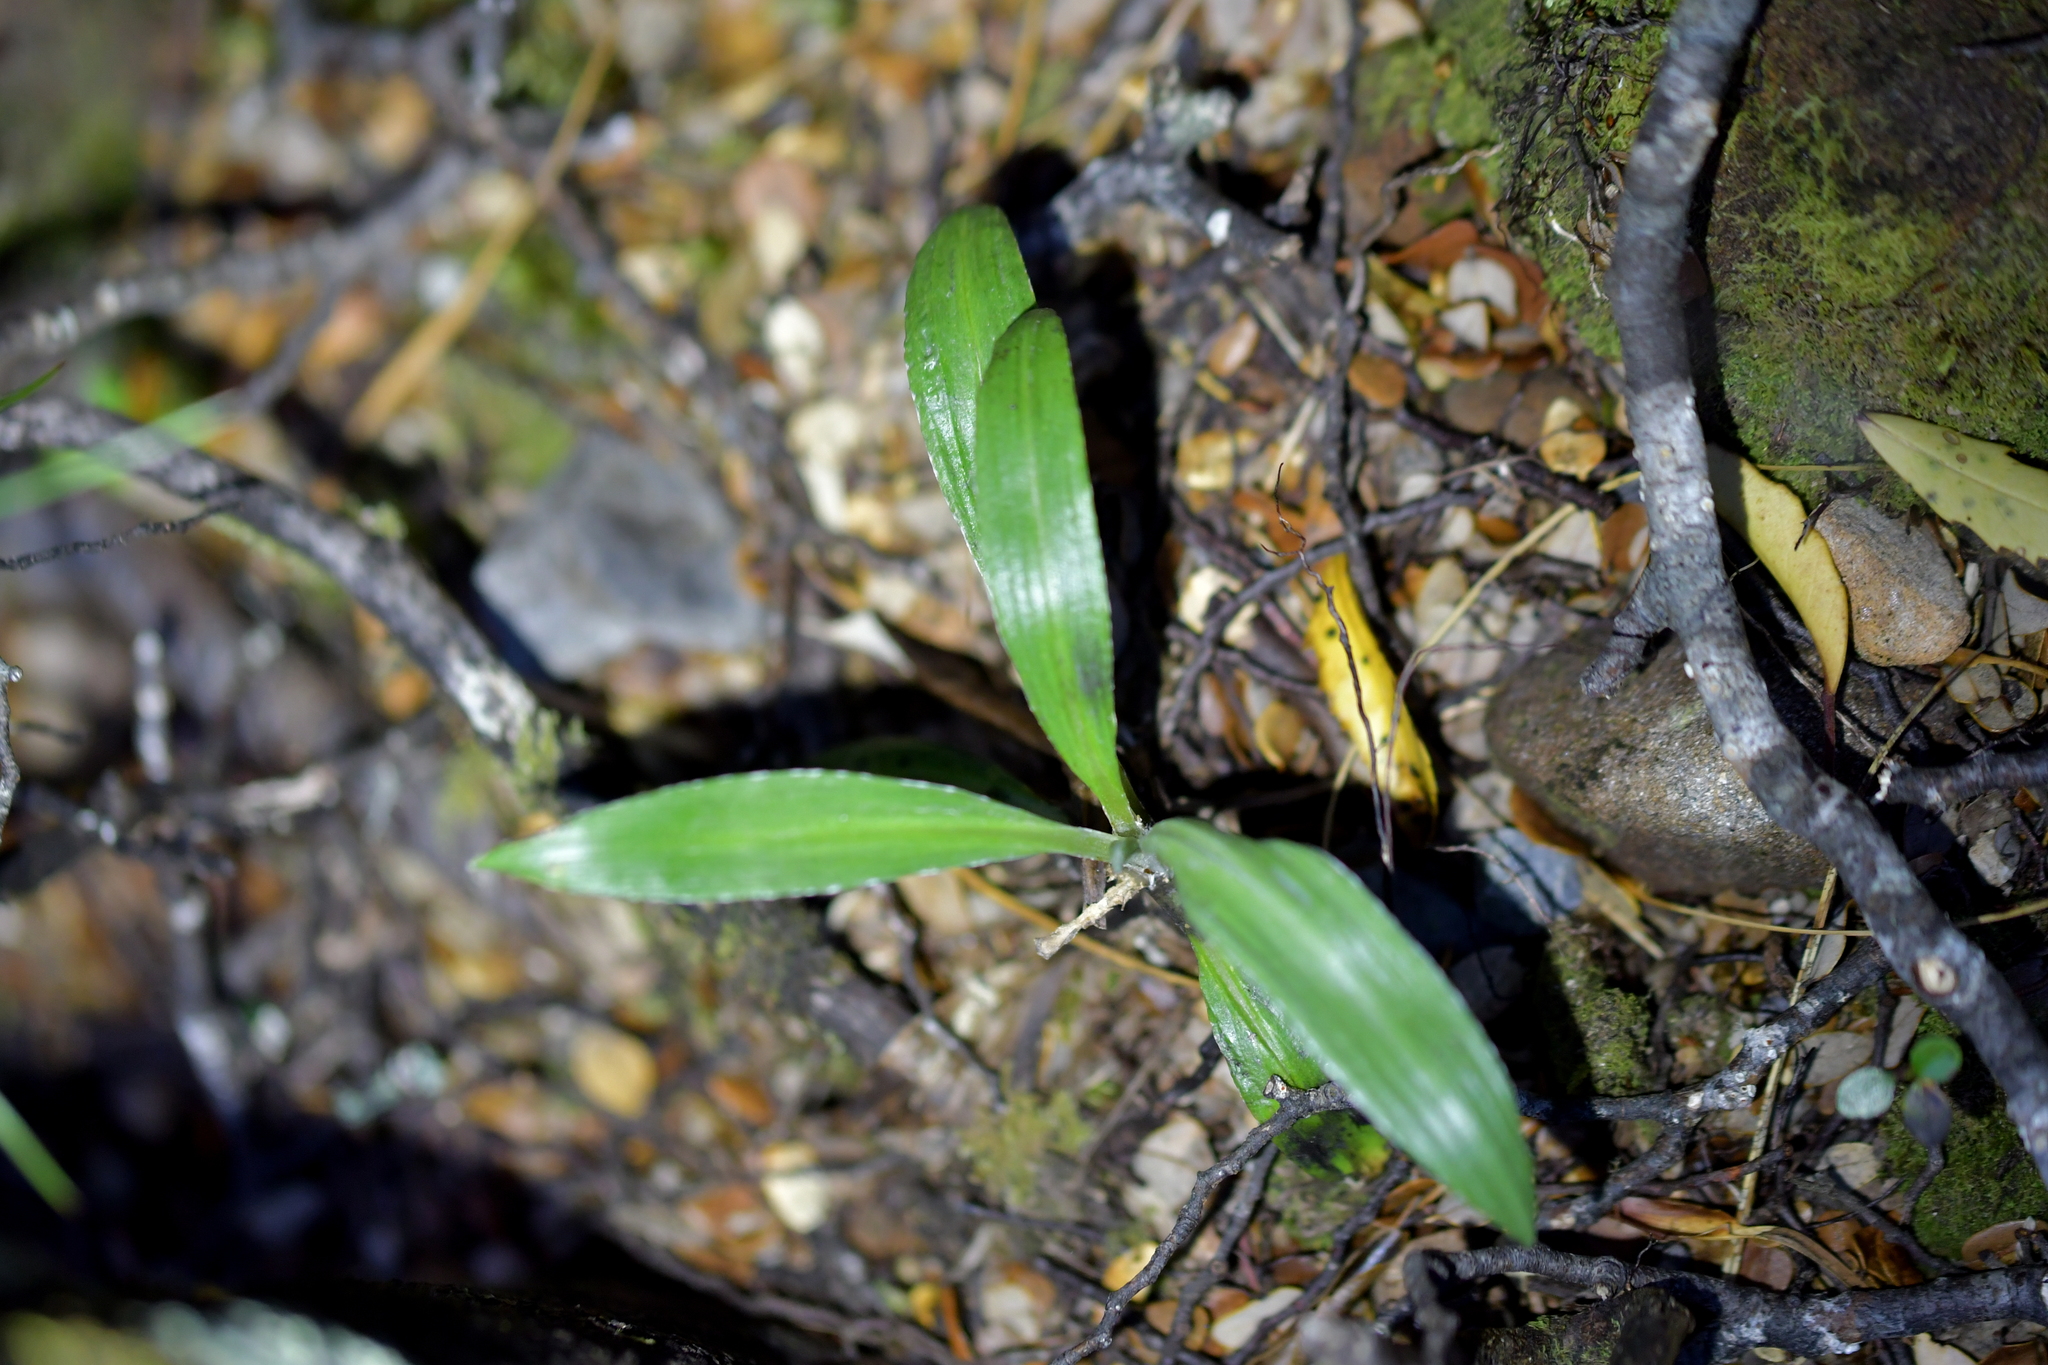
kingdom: Plantae
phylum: Tracheophyta
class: Magnoliopsida
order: Asterales
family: Asteraceae
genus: Celmisia
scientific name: Celmisia semicordata
